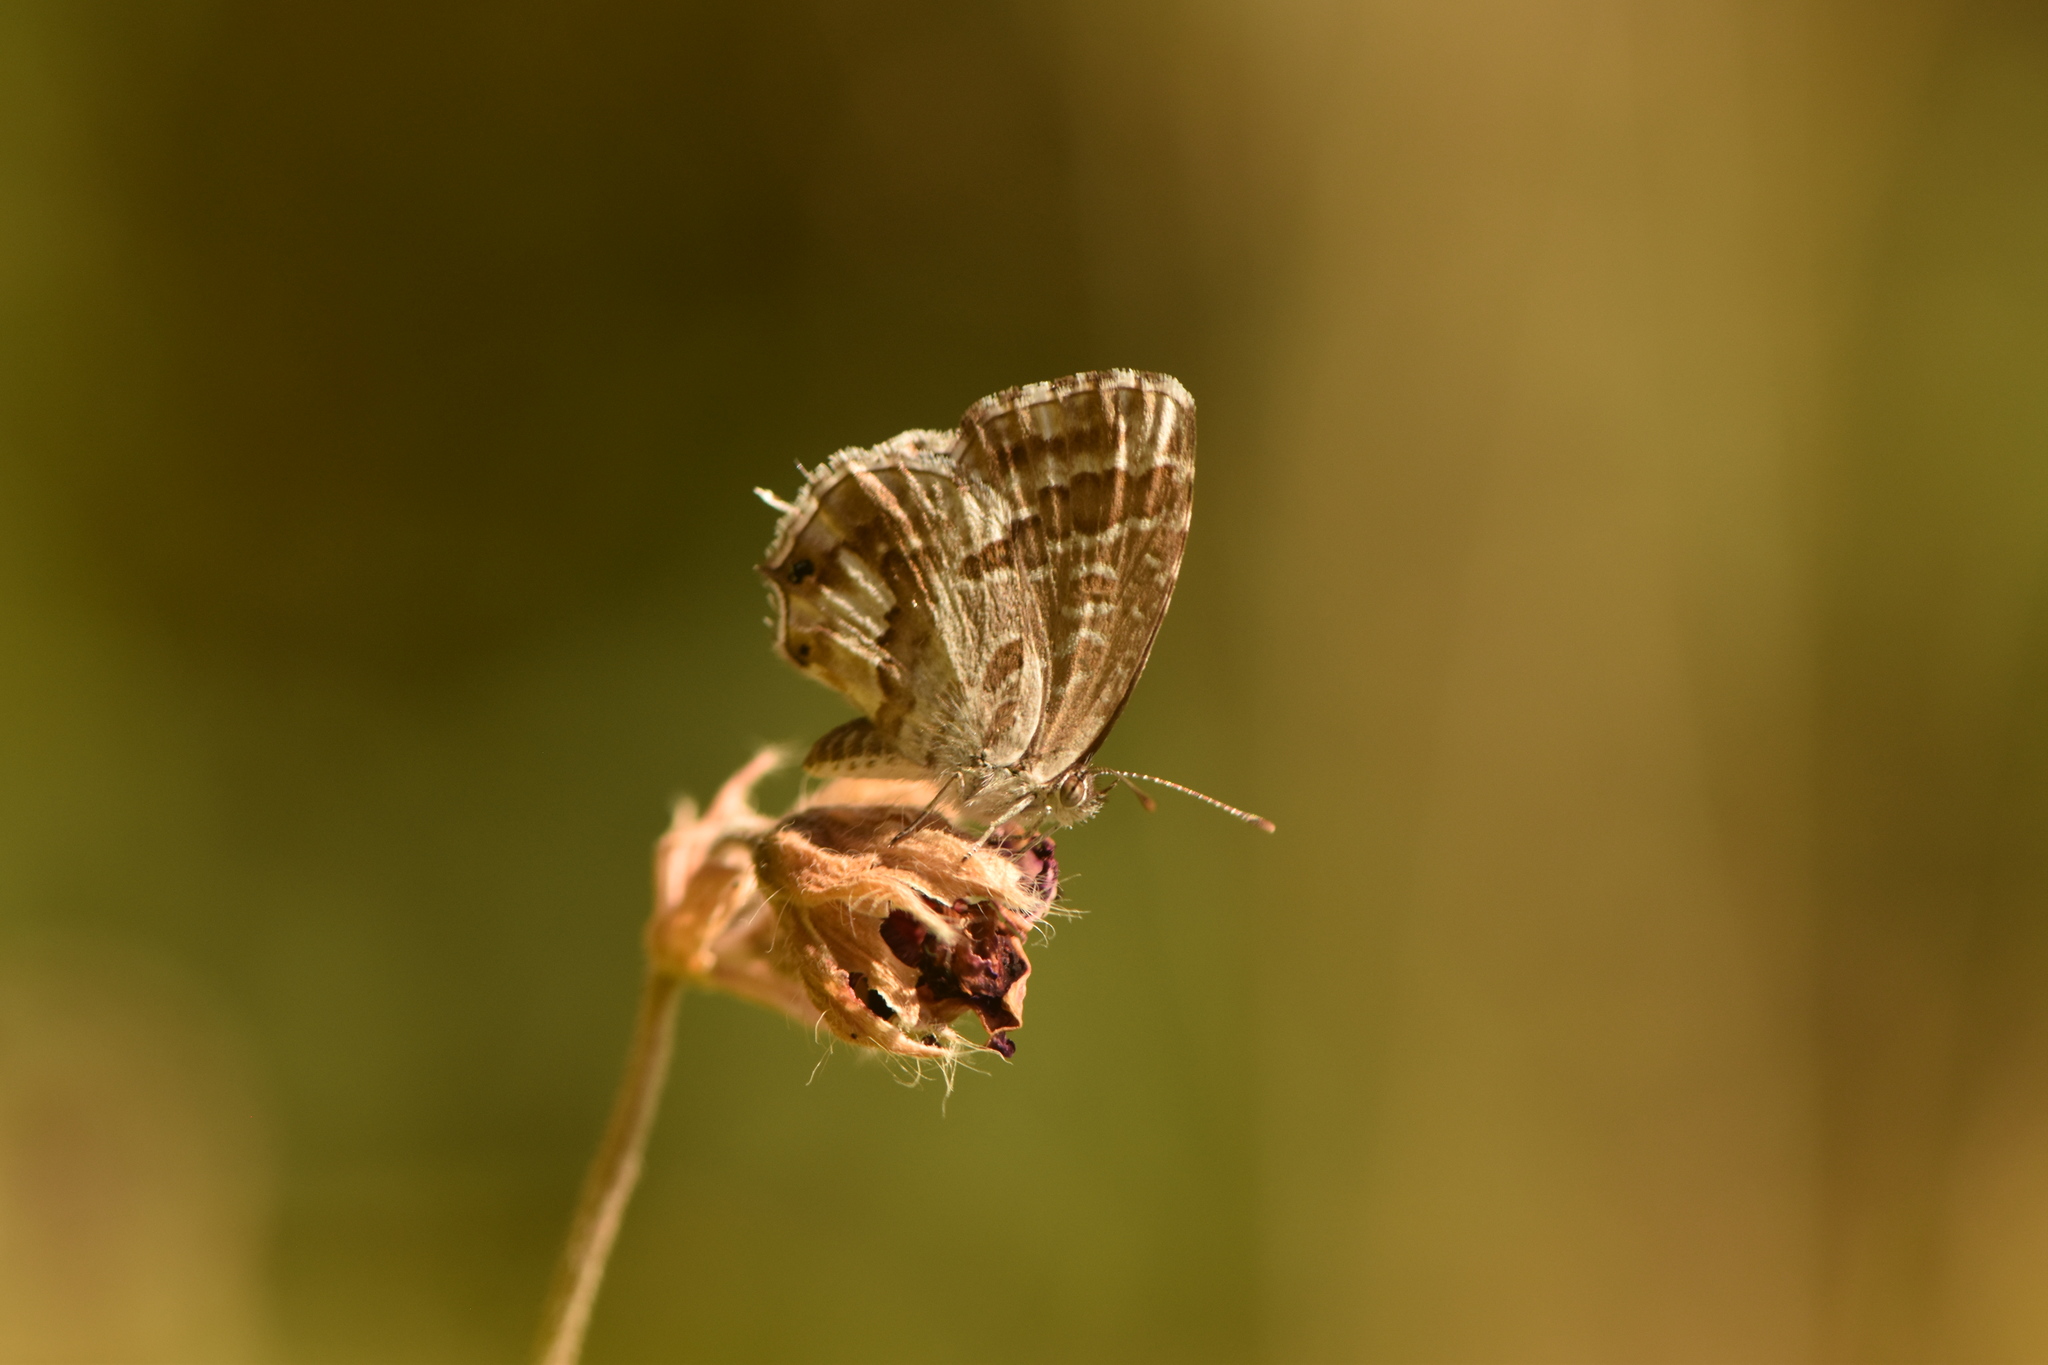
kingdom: Animalia
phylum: Arthropoda
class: Insecta
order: Lepidoptera
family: Lycaenidae
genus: Cacyreus
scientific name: Cacyreus marshalli
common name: Geranium bronze
